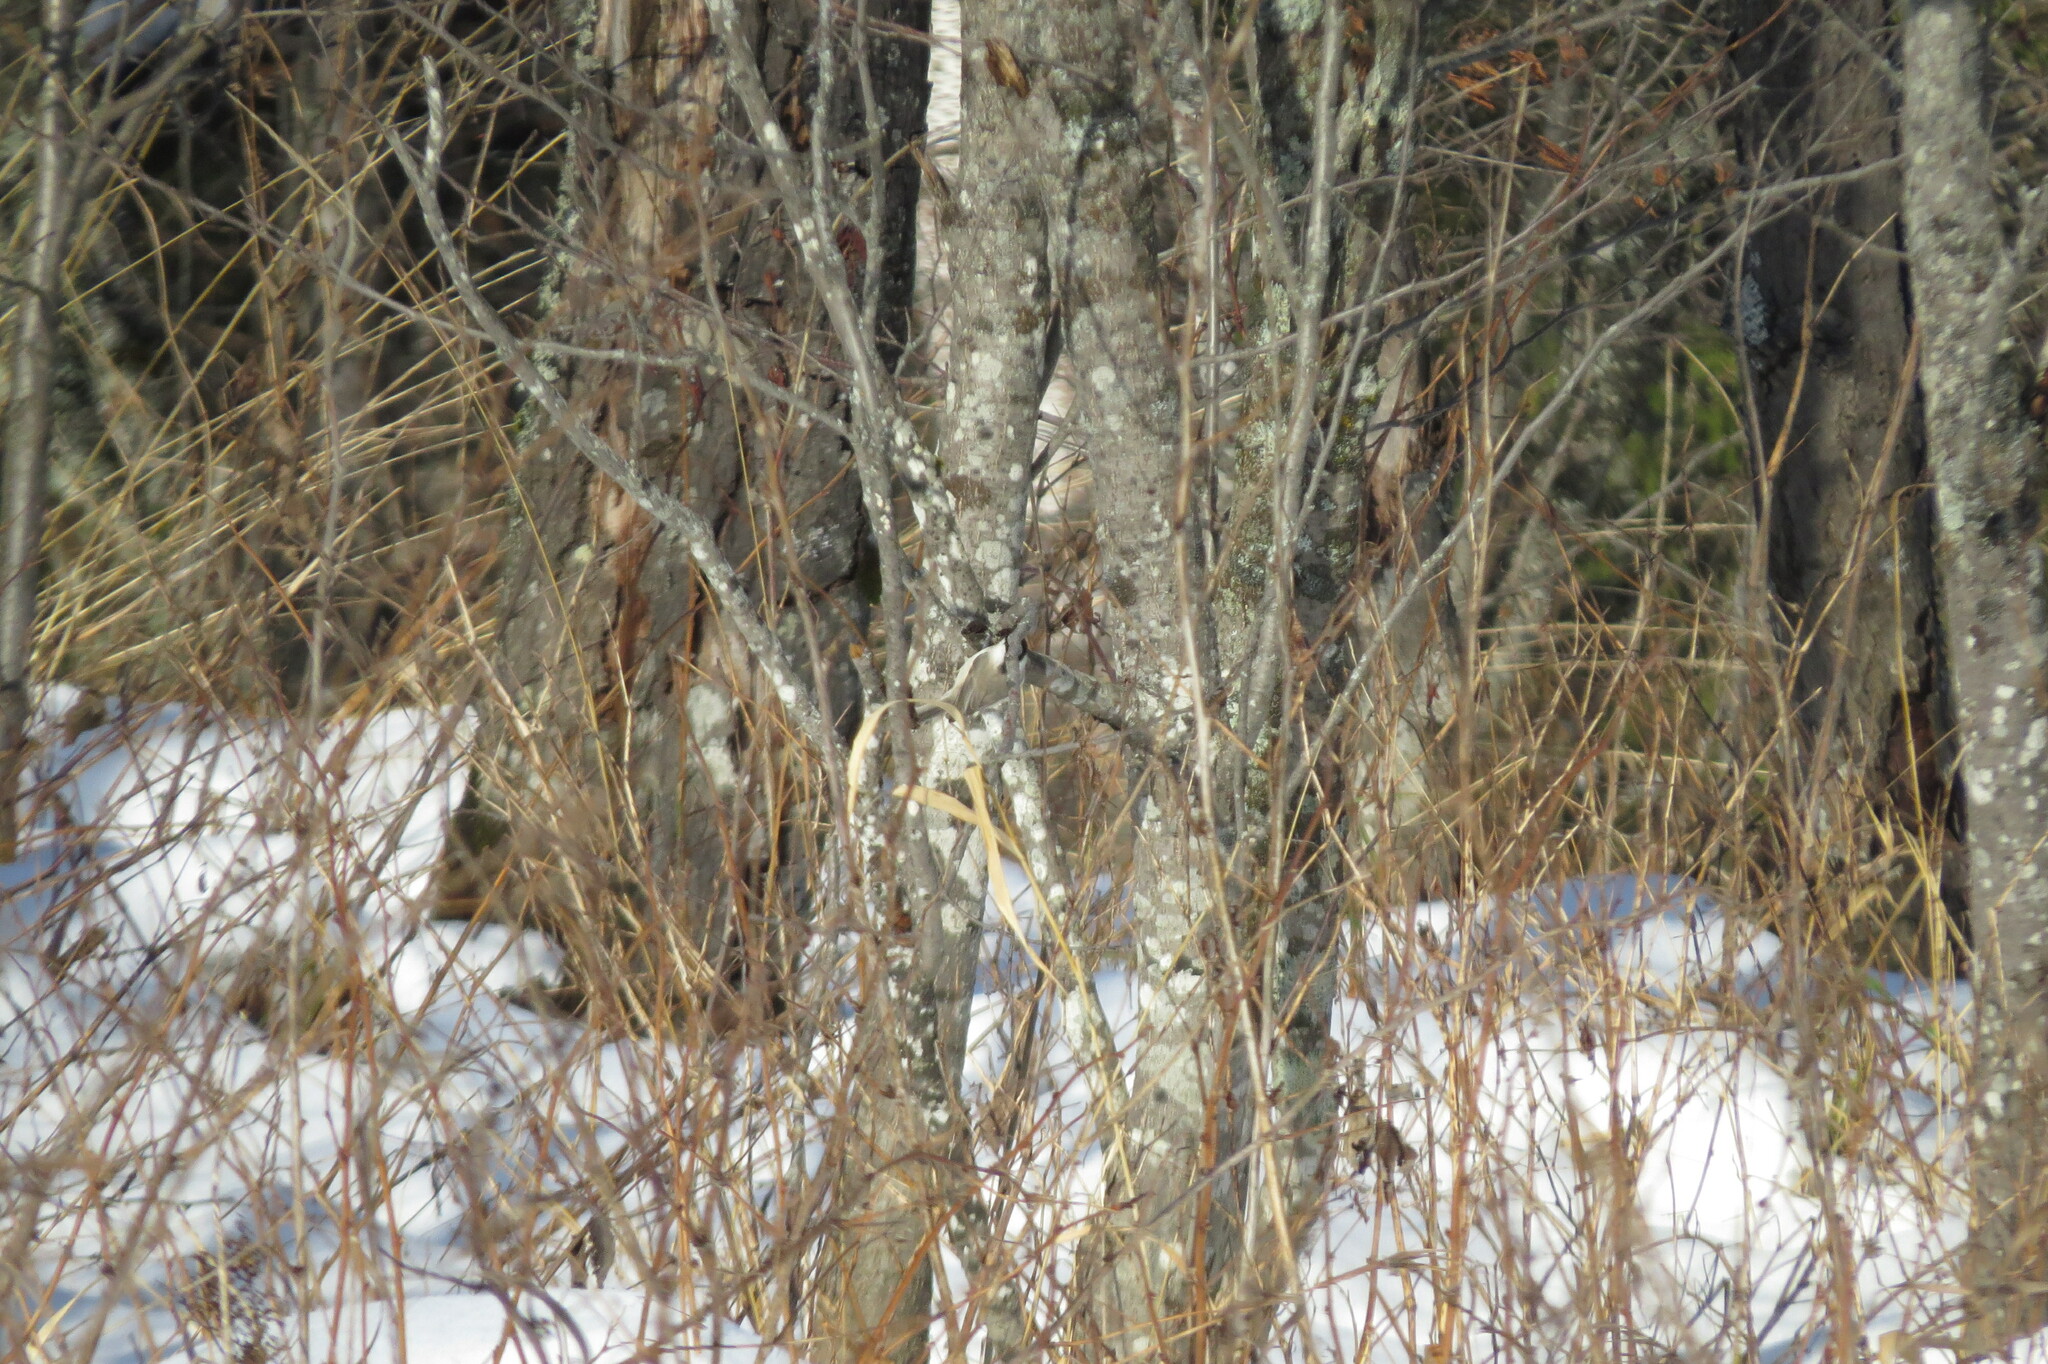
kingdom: Animalia
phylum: Chordata
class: Aves
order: Passeriformes
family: Paridae
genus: Poecile
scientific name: Poecile montanus
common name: Willow tit
